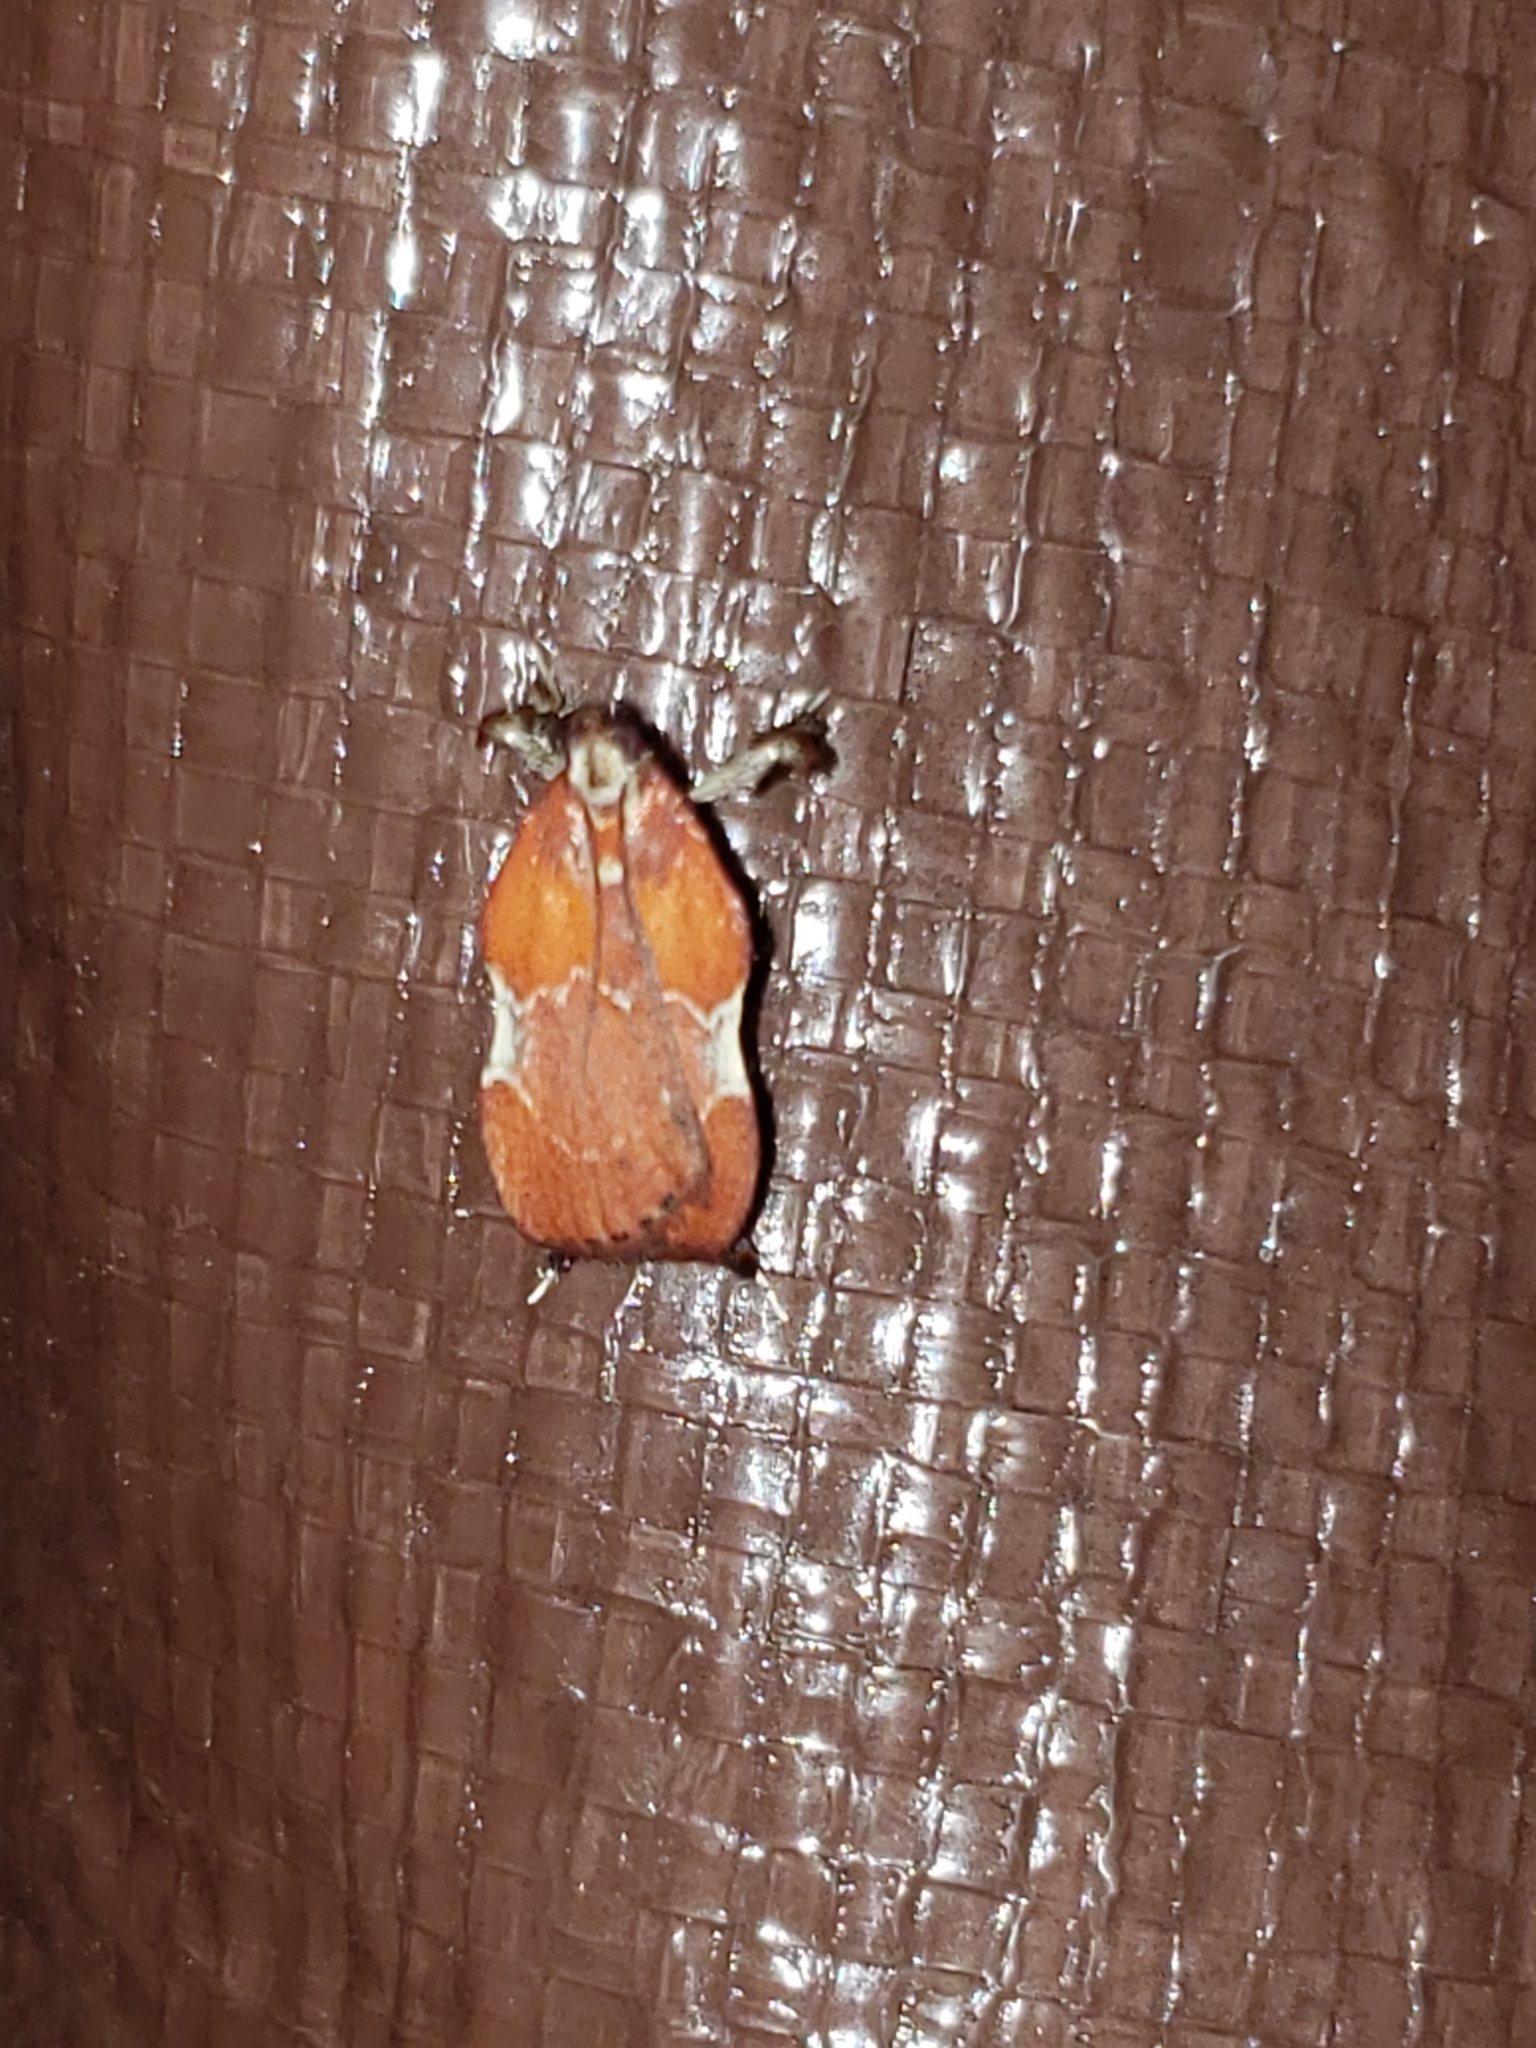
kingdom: Animalia
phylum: Arthropoda
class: Insecta
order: Lepidoptera
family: Pyralidae
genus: Galasa
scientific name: Galasa nigrinodis
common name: Boxwood leaftier moth
